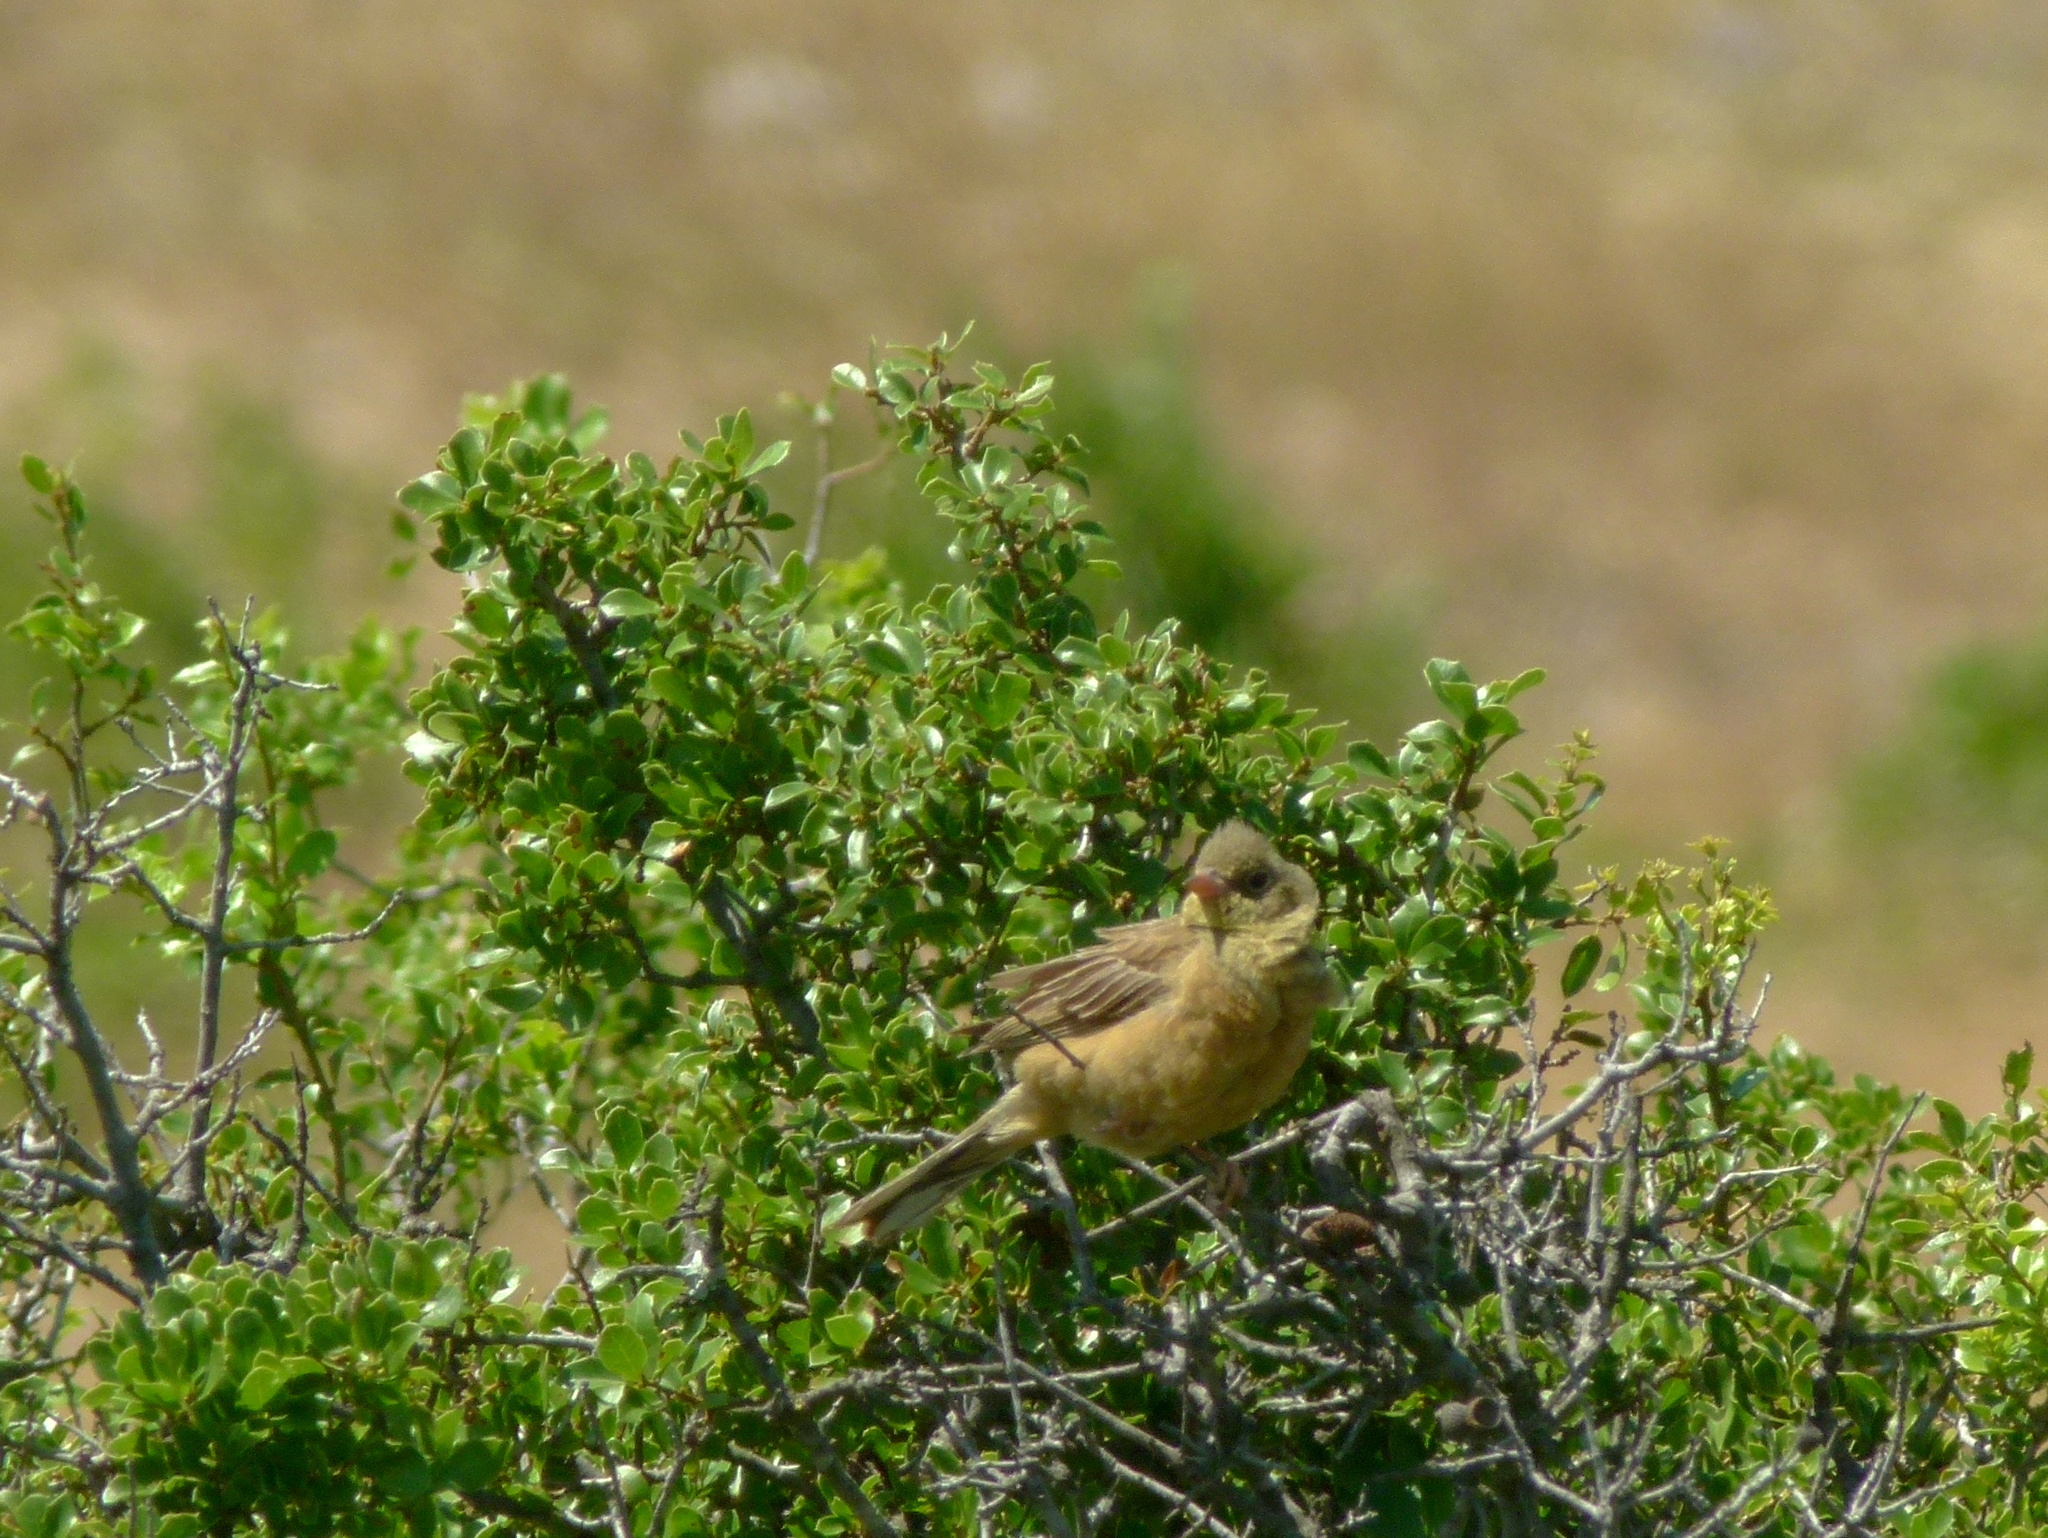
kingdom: Animalia
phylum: Chordata
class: Aves
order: Passeriformes
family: Emberizidae
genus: Emberiza
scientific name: Emberiza hortulana
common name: Ortolan bunting
